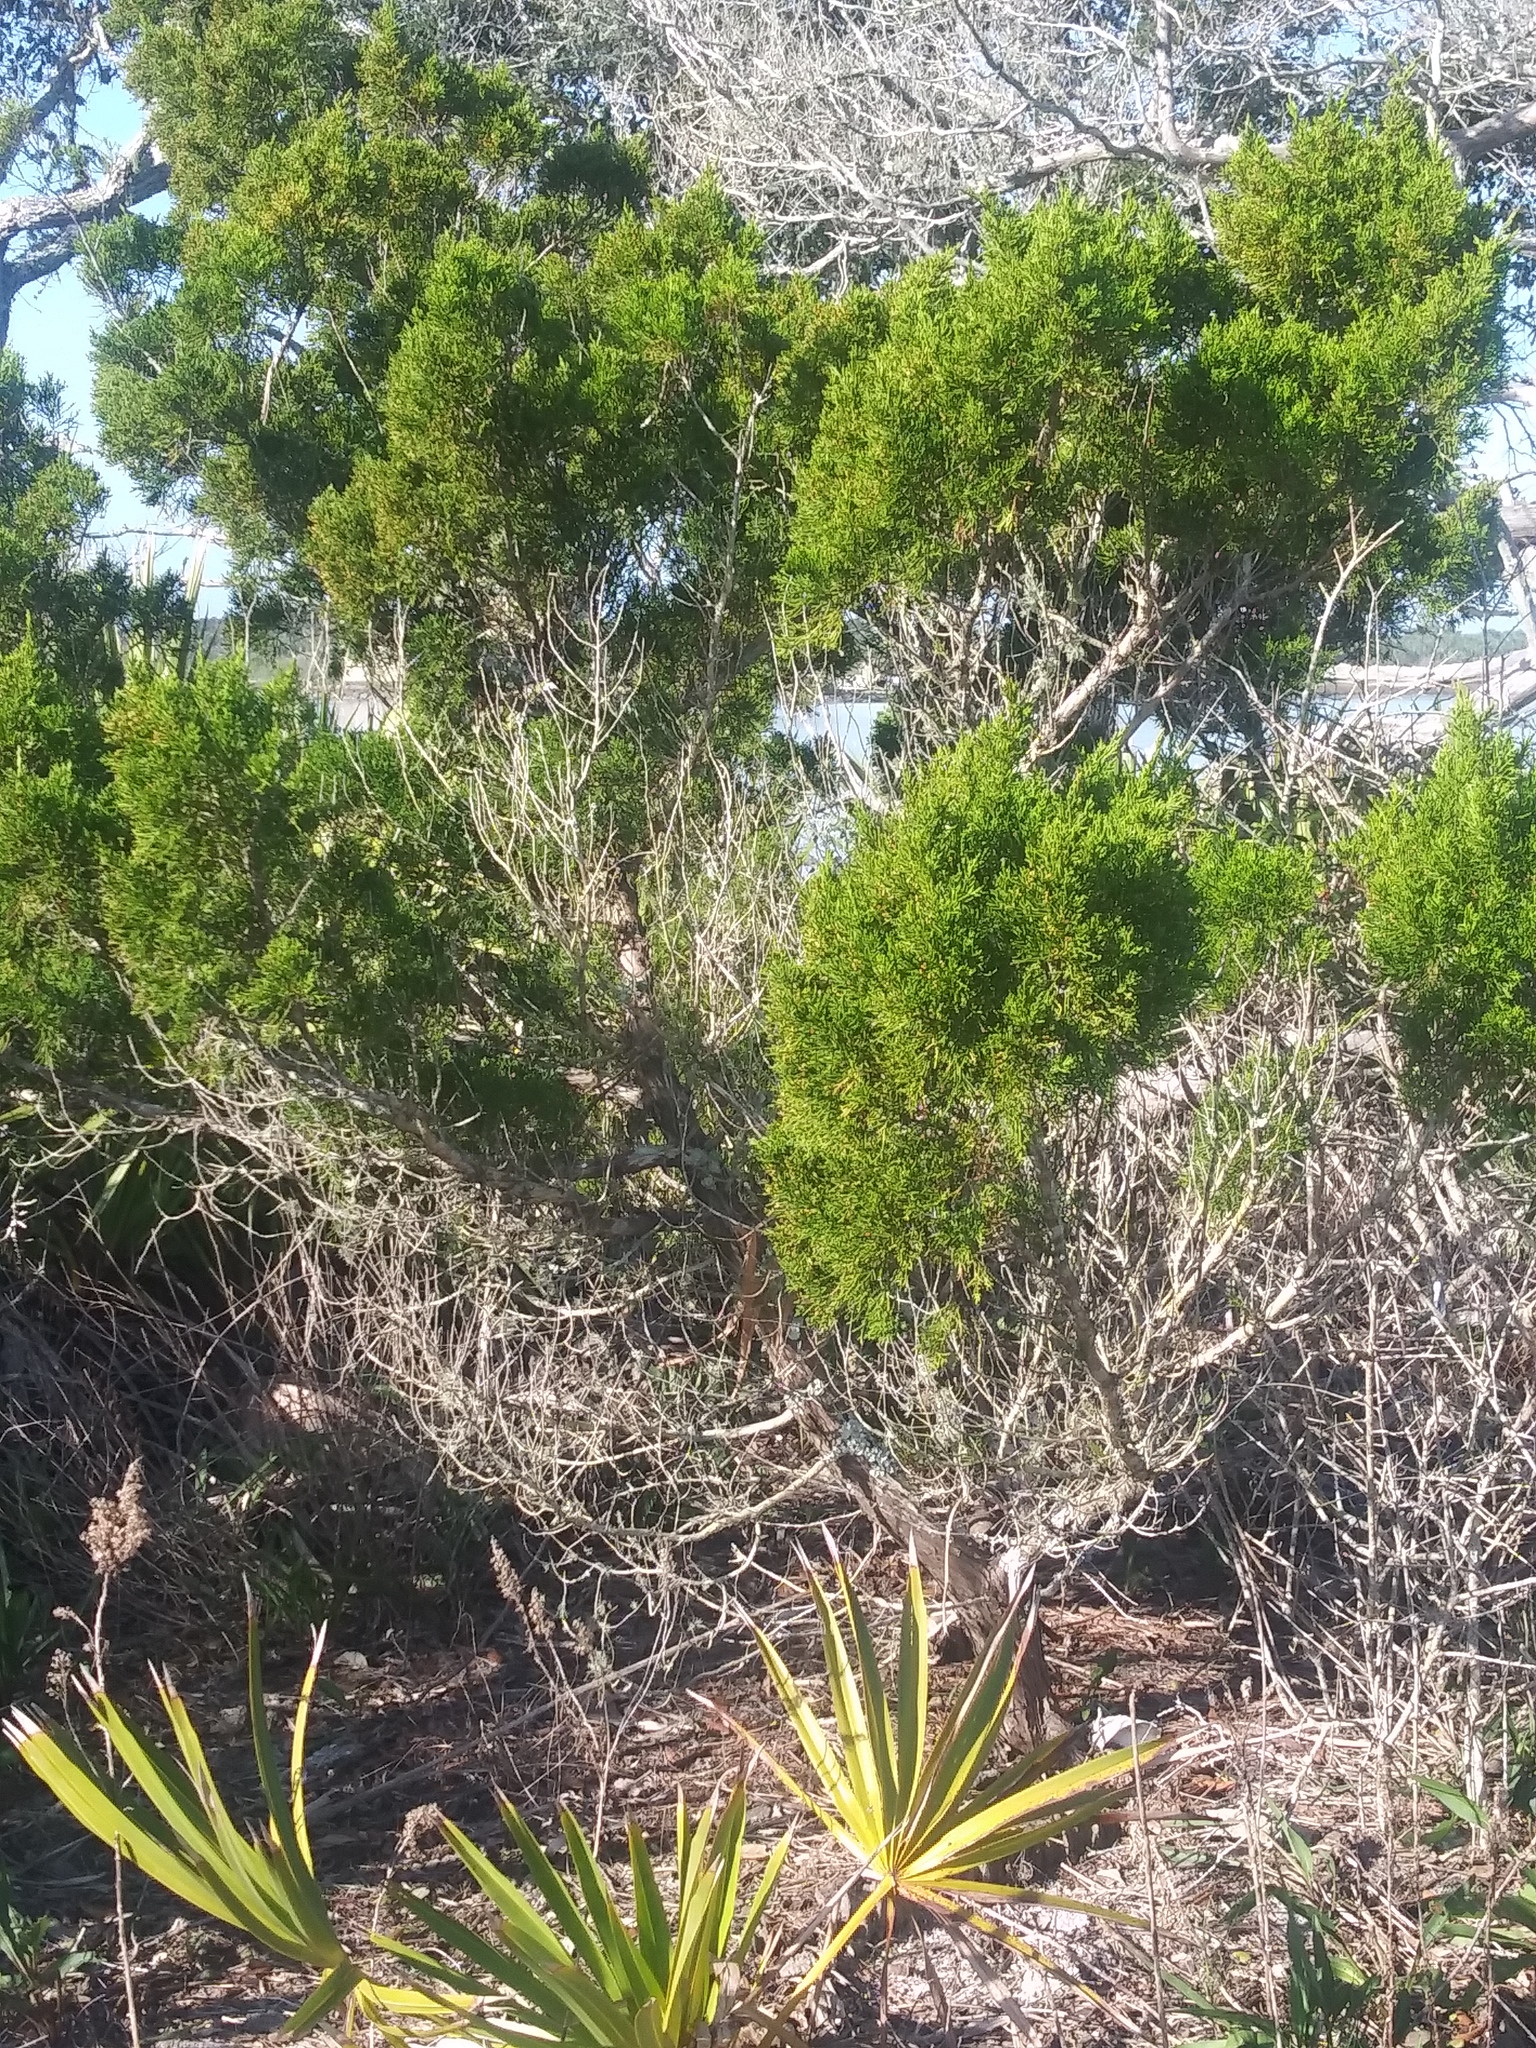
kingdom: Plantae
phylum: Tracheophyta
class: Pinopsida
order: Pinales
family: Cupressaceae
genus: Juniperus
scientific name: Juniperus virginiana
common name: Red juniper
